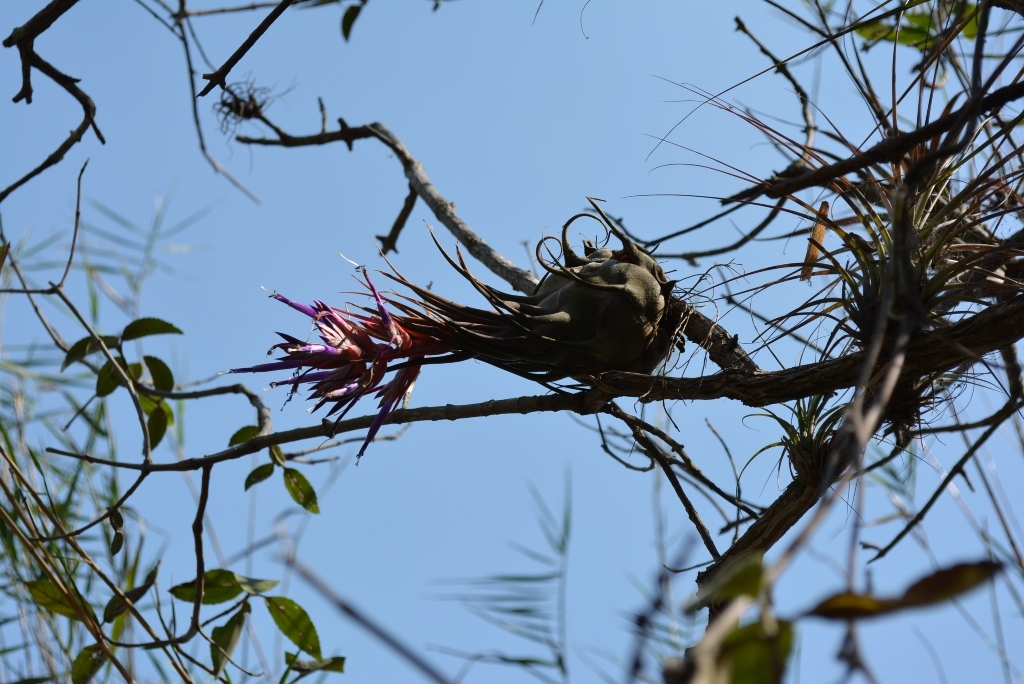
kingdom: Plantae
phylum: Tracheophyta
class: Liliopsida
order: Poales
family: Bromeliaceae
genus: Tillandsia
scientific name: Tillandsia seleriana
